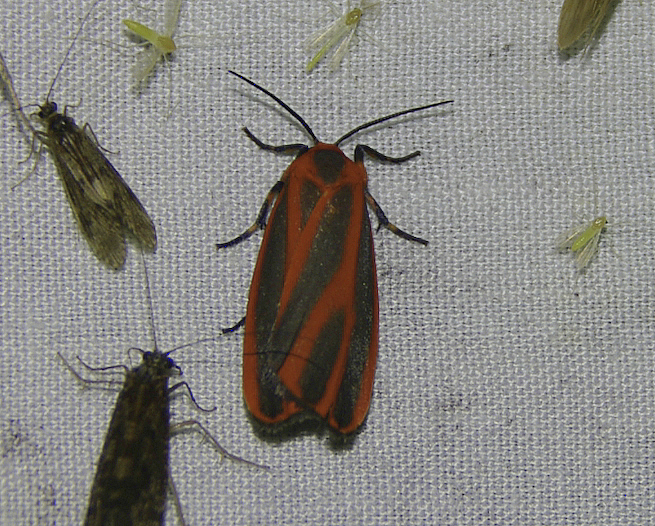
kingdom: Animalia
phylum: Arthropoda
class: Insecta
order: Lepidoptera
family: Erebidae
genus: Hypoprepia
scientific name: Hypoprepia miniata
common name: Scarlet-winged lichen moth
